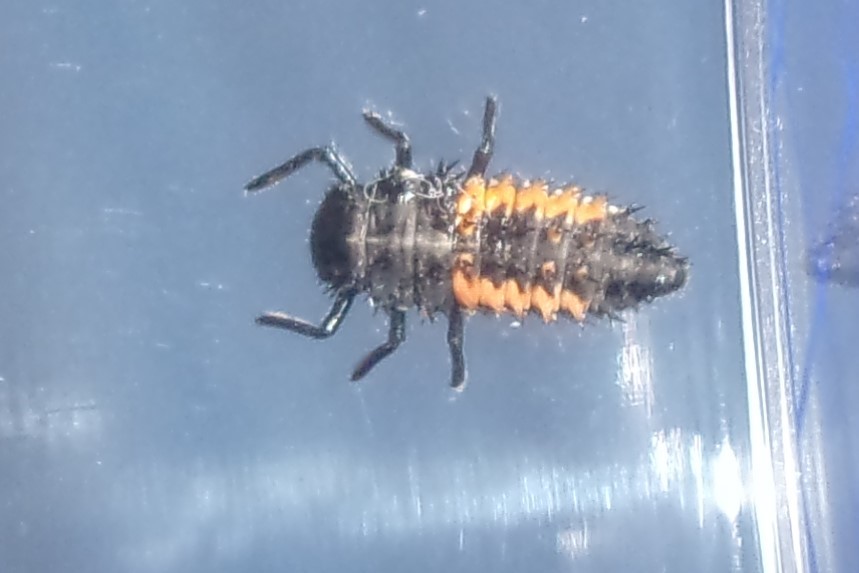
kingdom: Animalia
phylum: Arthropoda
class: Insecta
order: Coleoptera
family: Coccinellidae
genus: Harmonia
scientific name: Harmonia axyridis
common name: Harlequin ladybird
